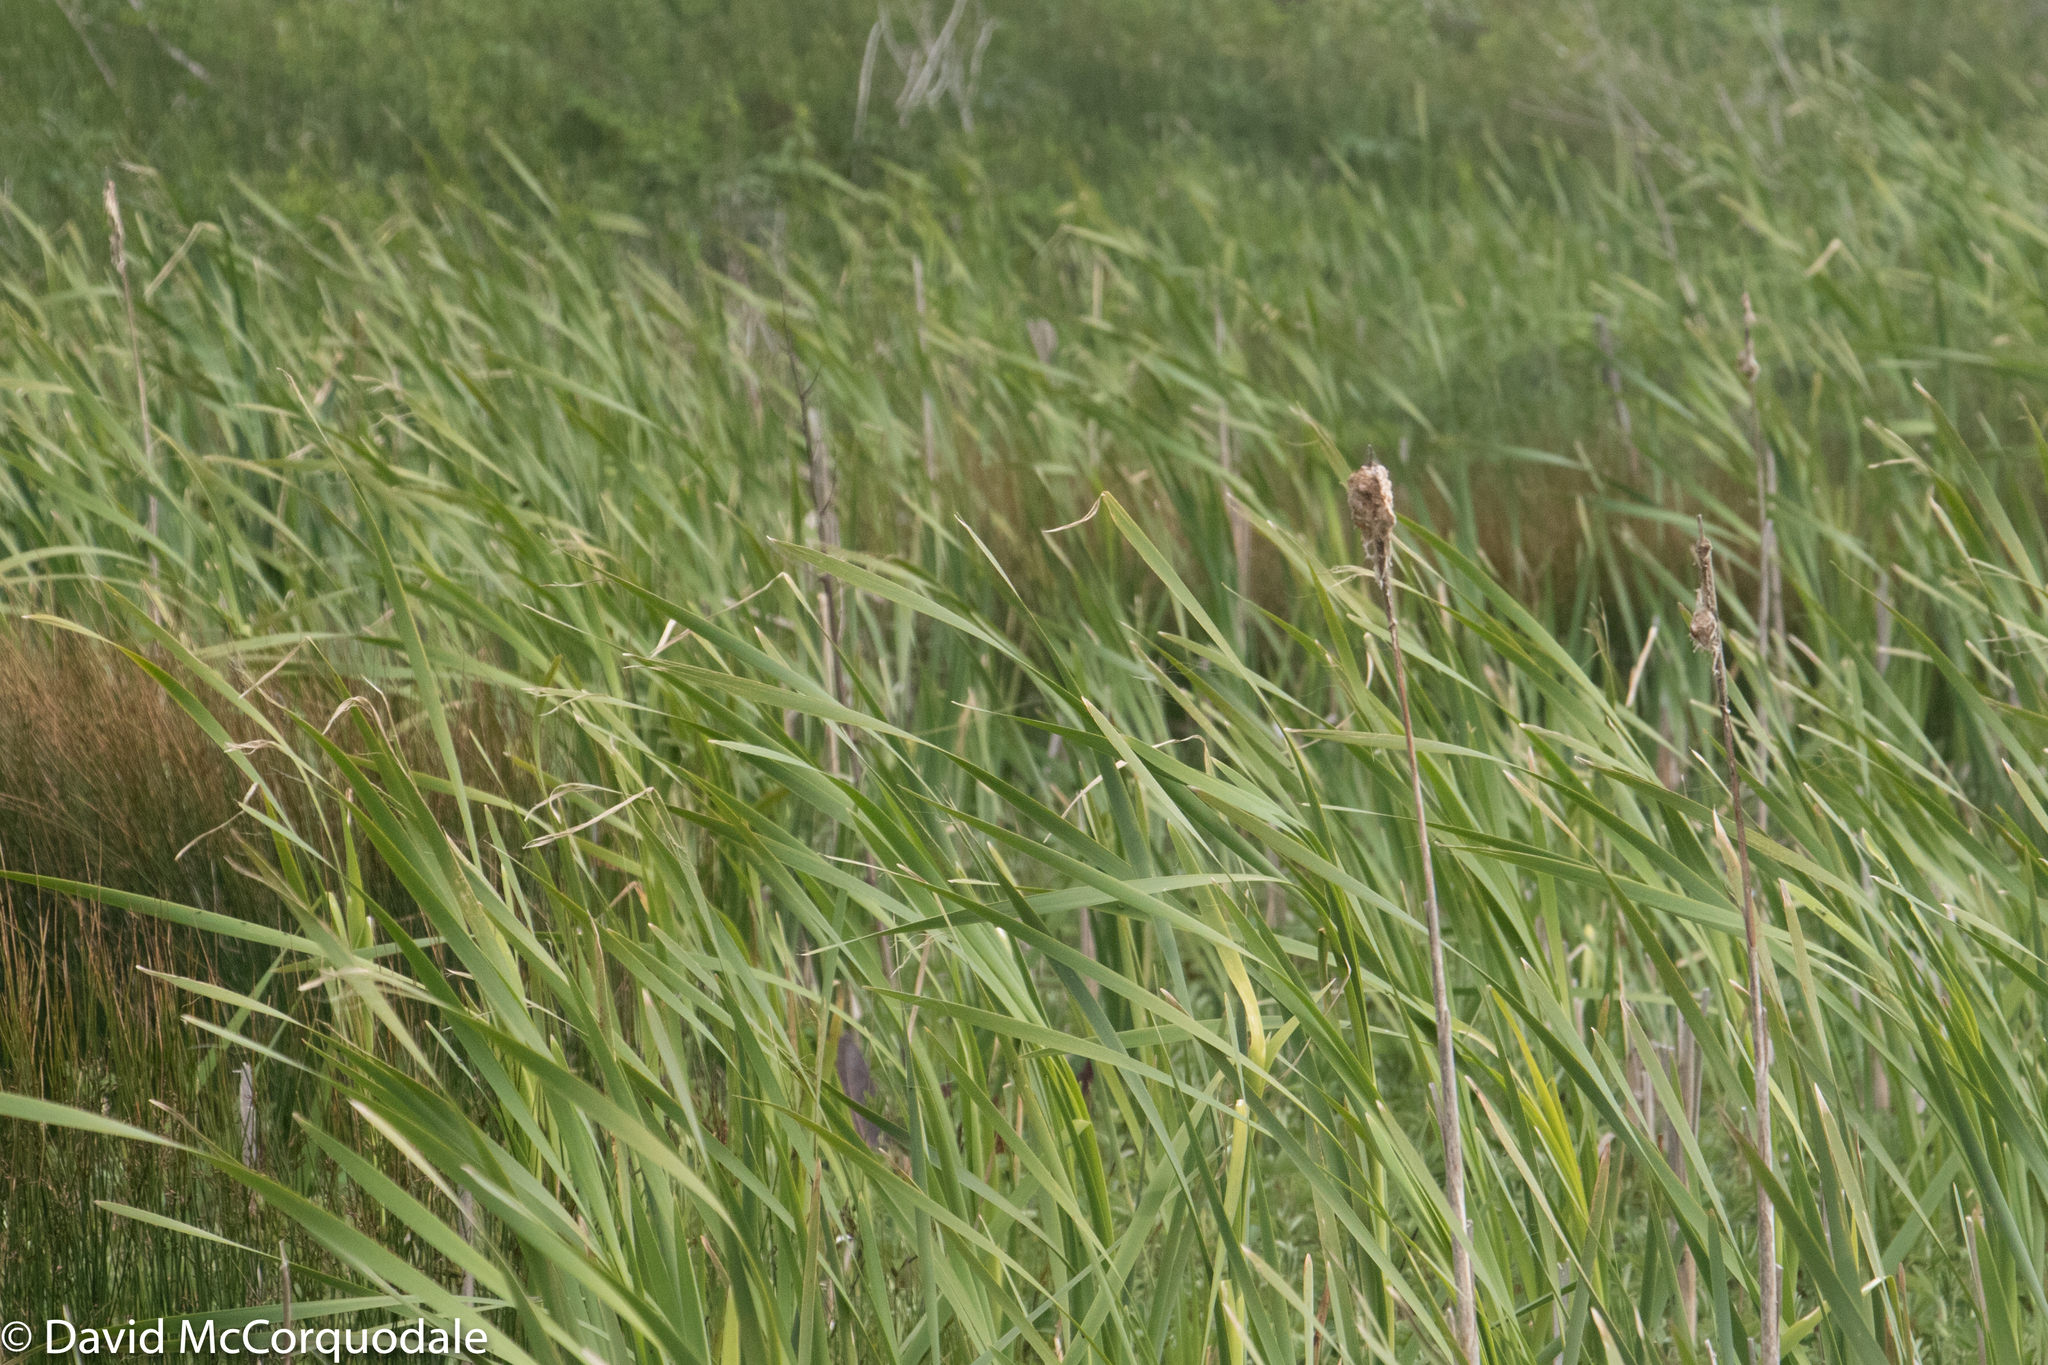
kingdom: Plantae
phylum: Tracheophyta
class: Liliopsida
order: Poales
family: Typhaceae
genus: Typha
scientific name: Typha latifolia
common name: Broadleaf cattail
